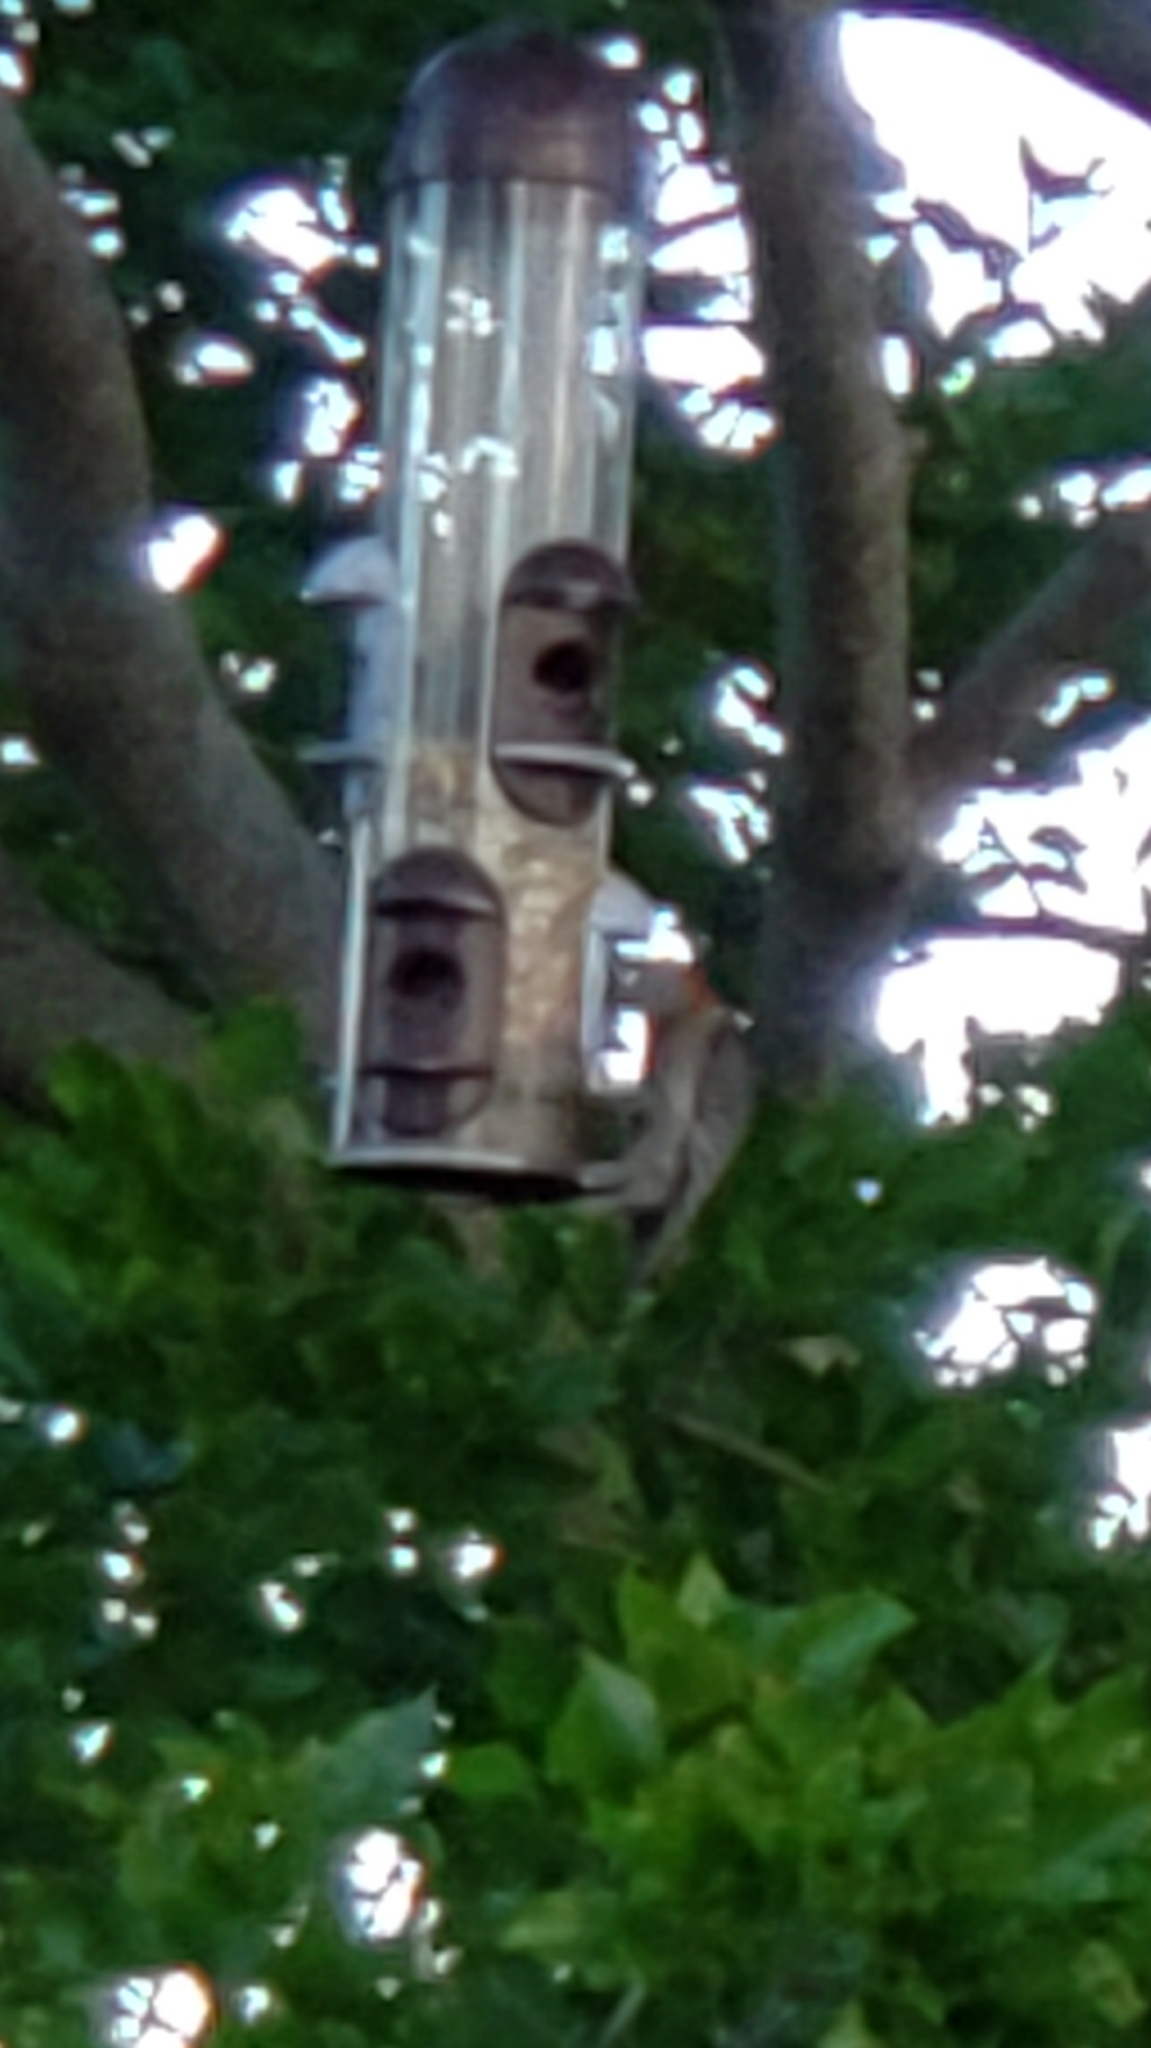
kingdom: Animalia
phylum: Chordata
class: Aves
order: Piciformes
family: Picidae
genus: Melanerpes
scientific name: Melanerpes carolinus
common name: Red-bellied woodpecker
